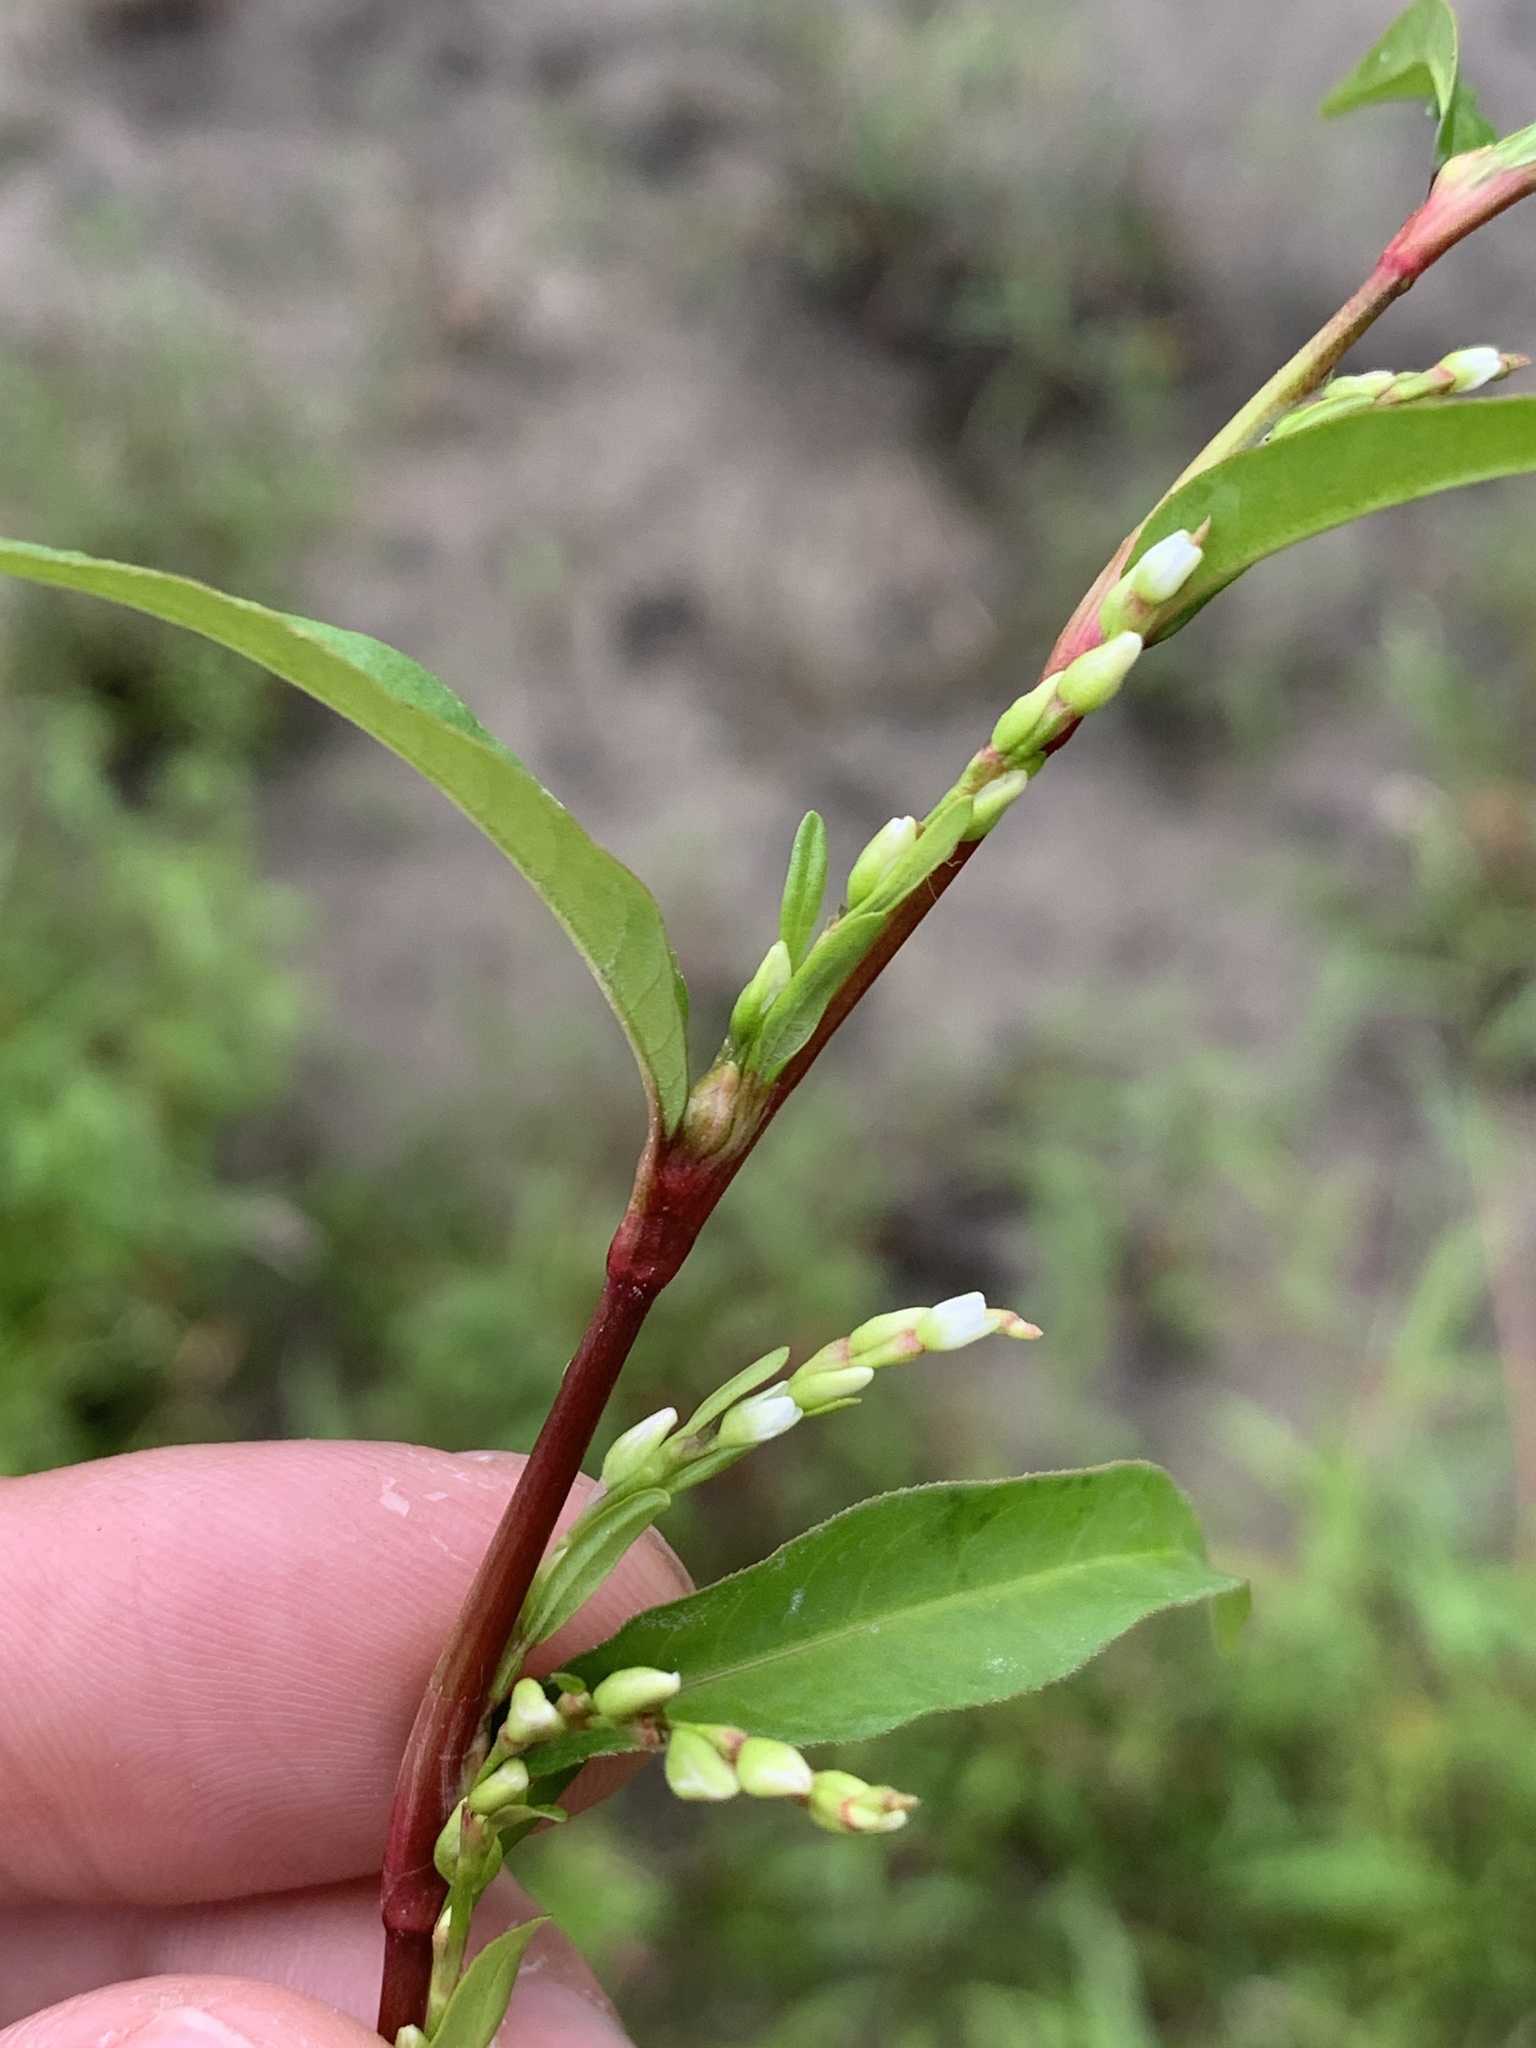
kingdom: Plantae
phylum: Tracheophyta
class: Magnoliopsida
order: Caryophyllales
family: Polygonaceae
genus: Persicaria
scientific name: Persicaria hydropiper
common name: Water-pepper
